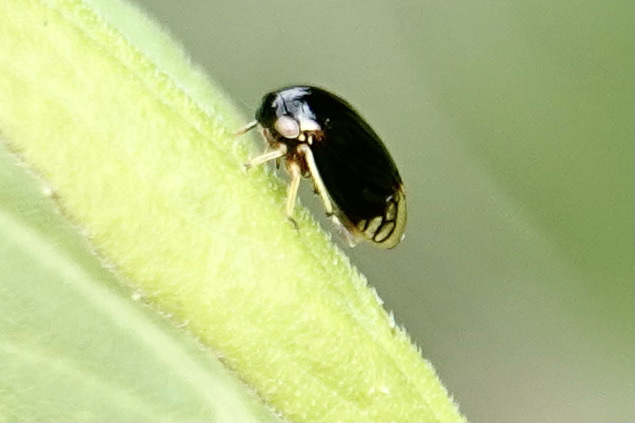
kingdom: Animalia
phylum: Arthropoda
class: Insecta
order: Hemiptera
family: Membracidae
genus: Acutalis
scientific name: Acutalis tartarea
